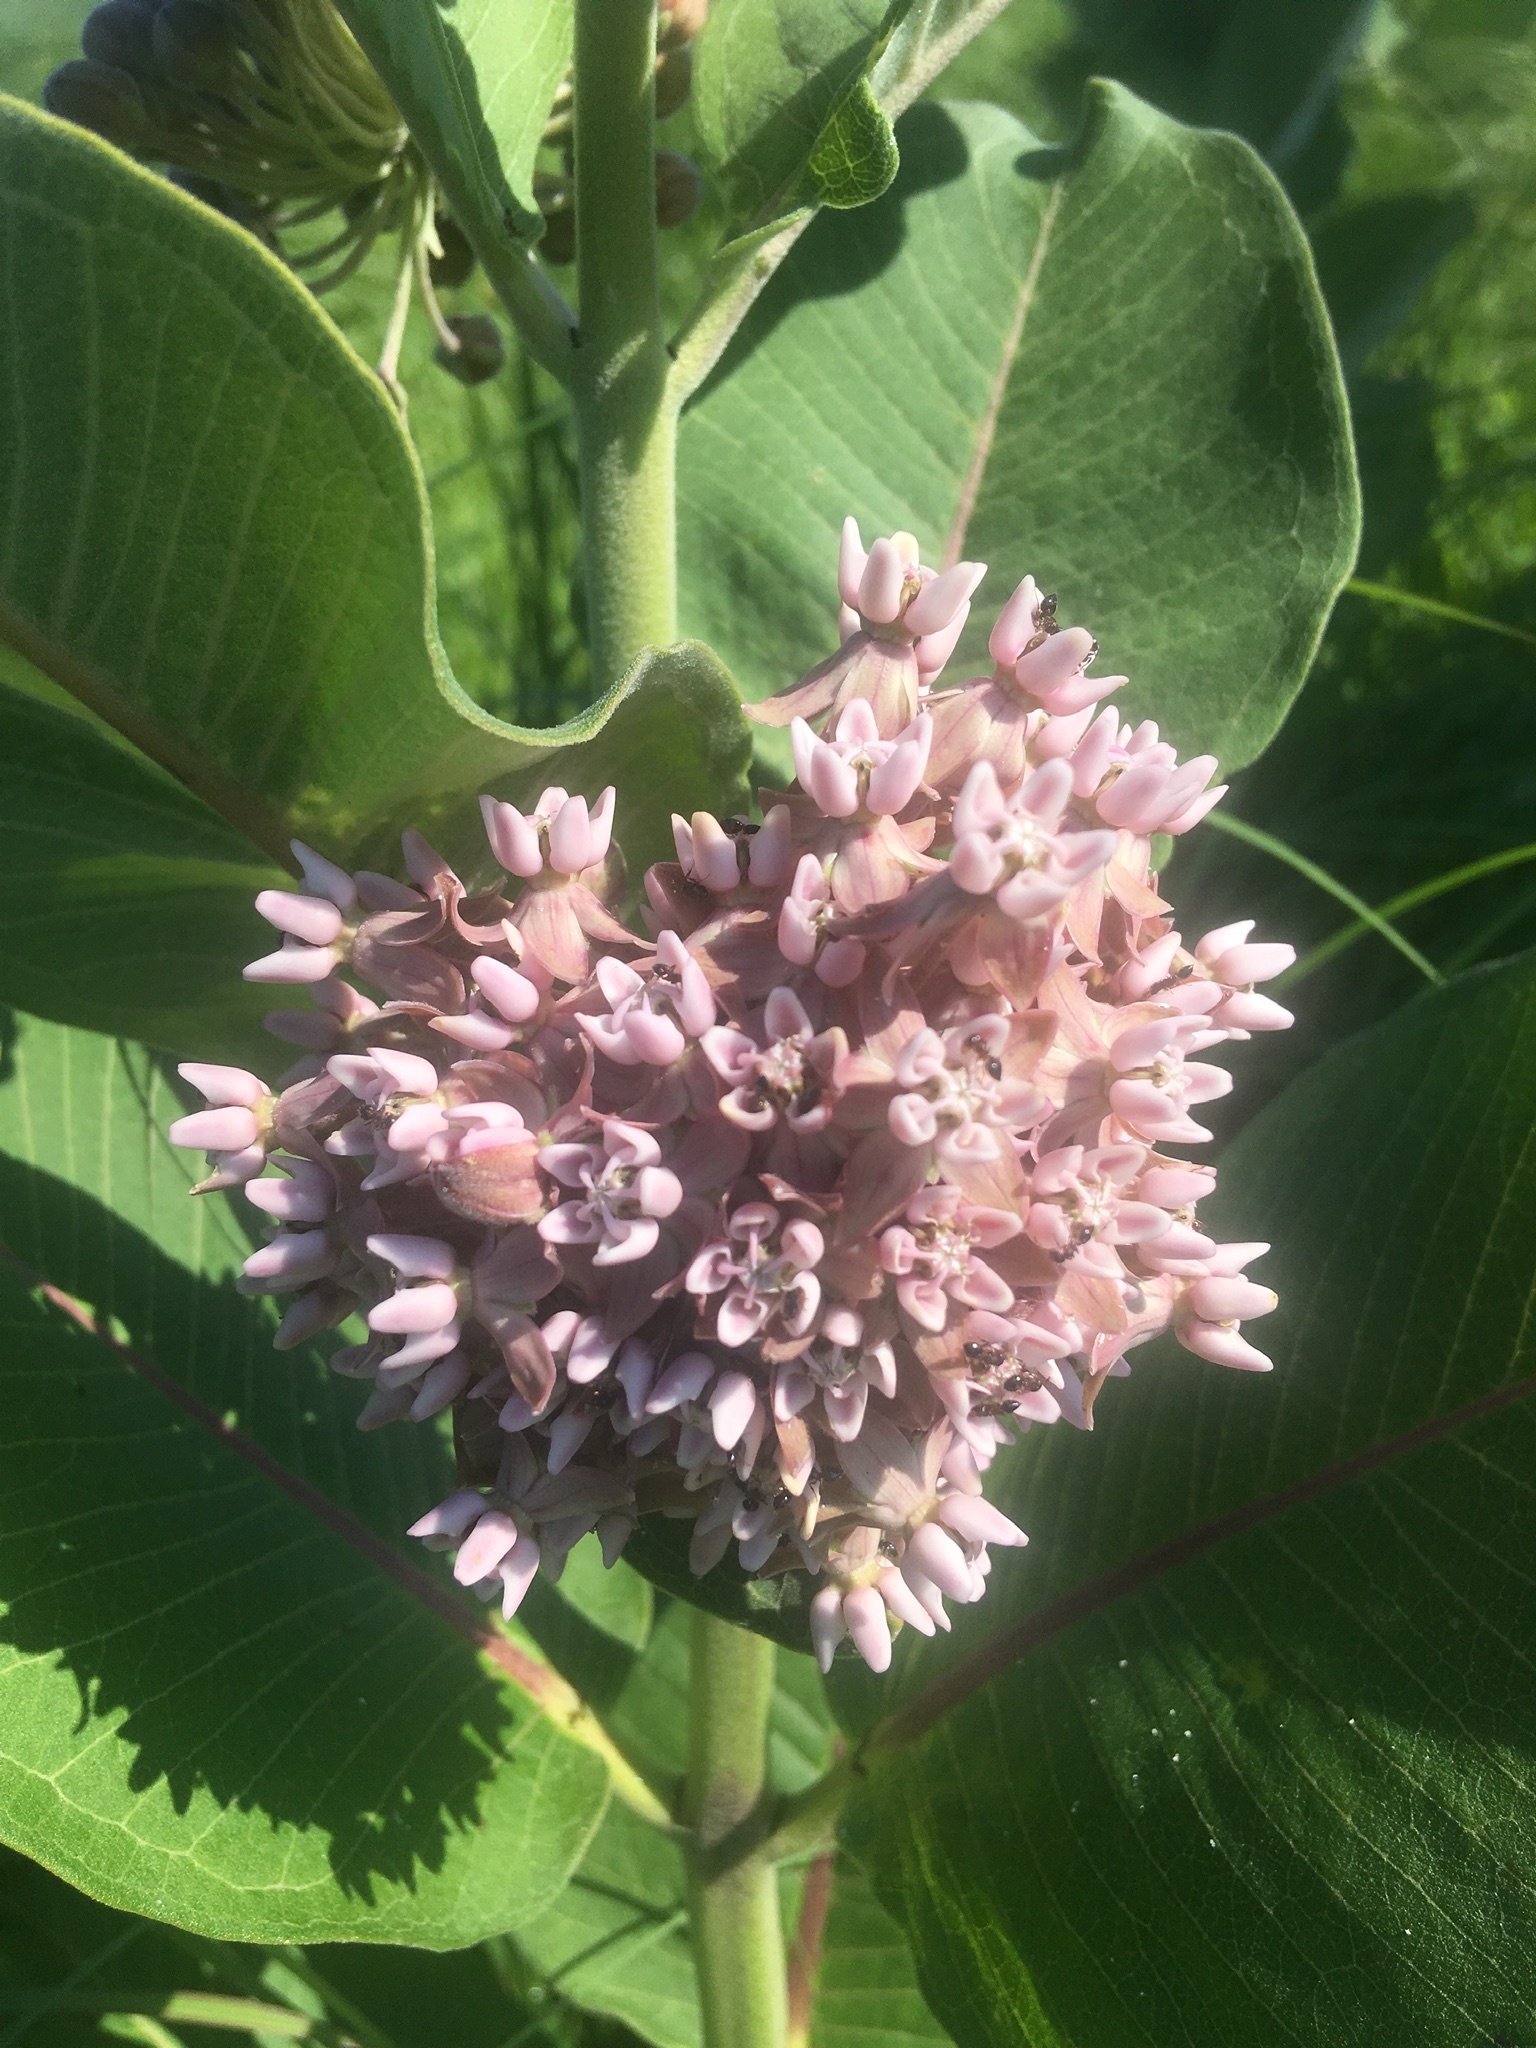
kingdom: Plantae
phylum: Tracheophyta
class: Magnoliopsida
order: Gentianales
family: Apocynaceae
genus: Asclepias
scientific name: Asclepias syriaca
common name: Common milkweed
